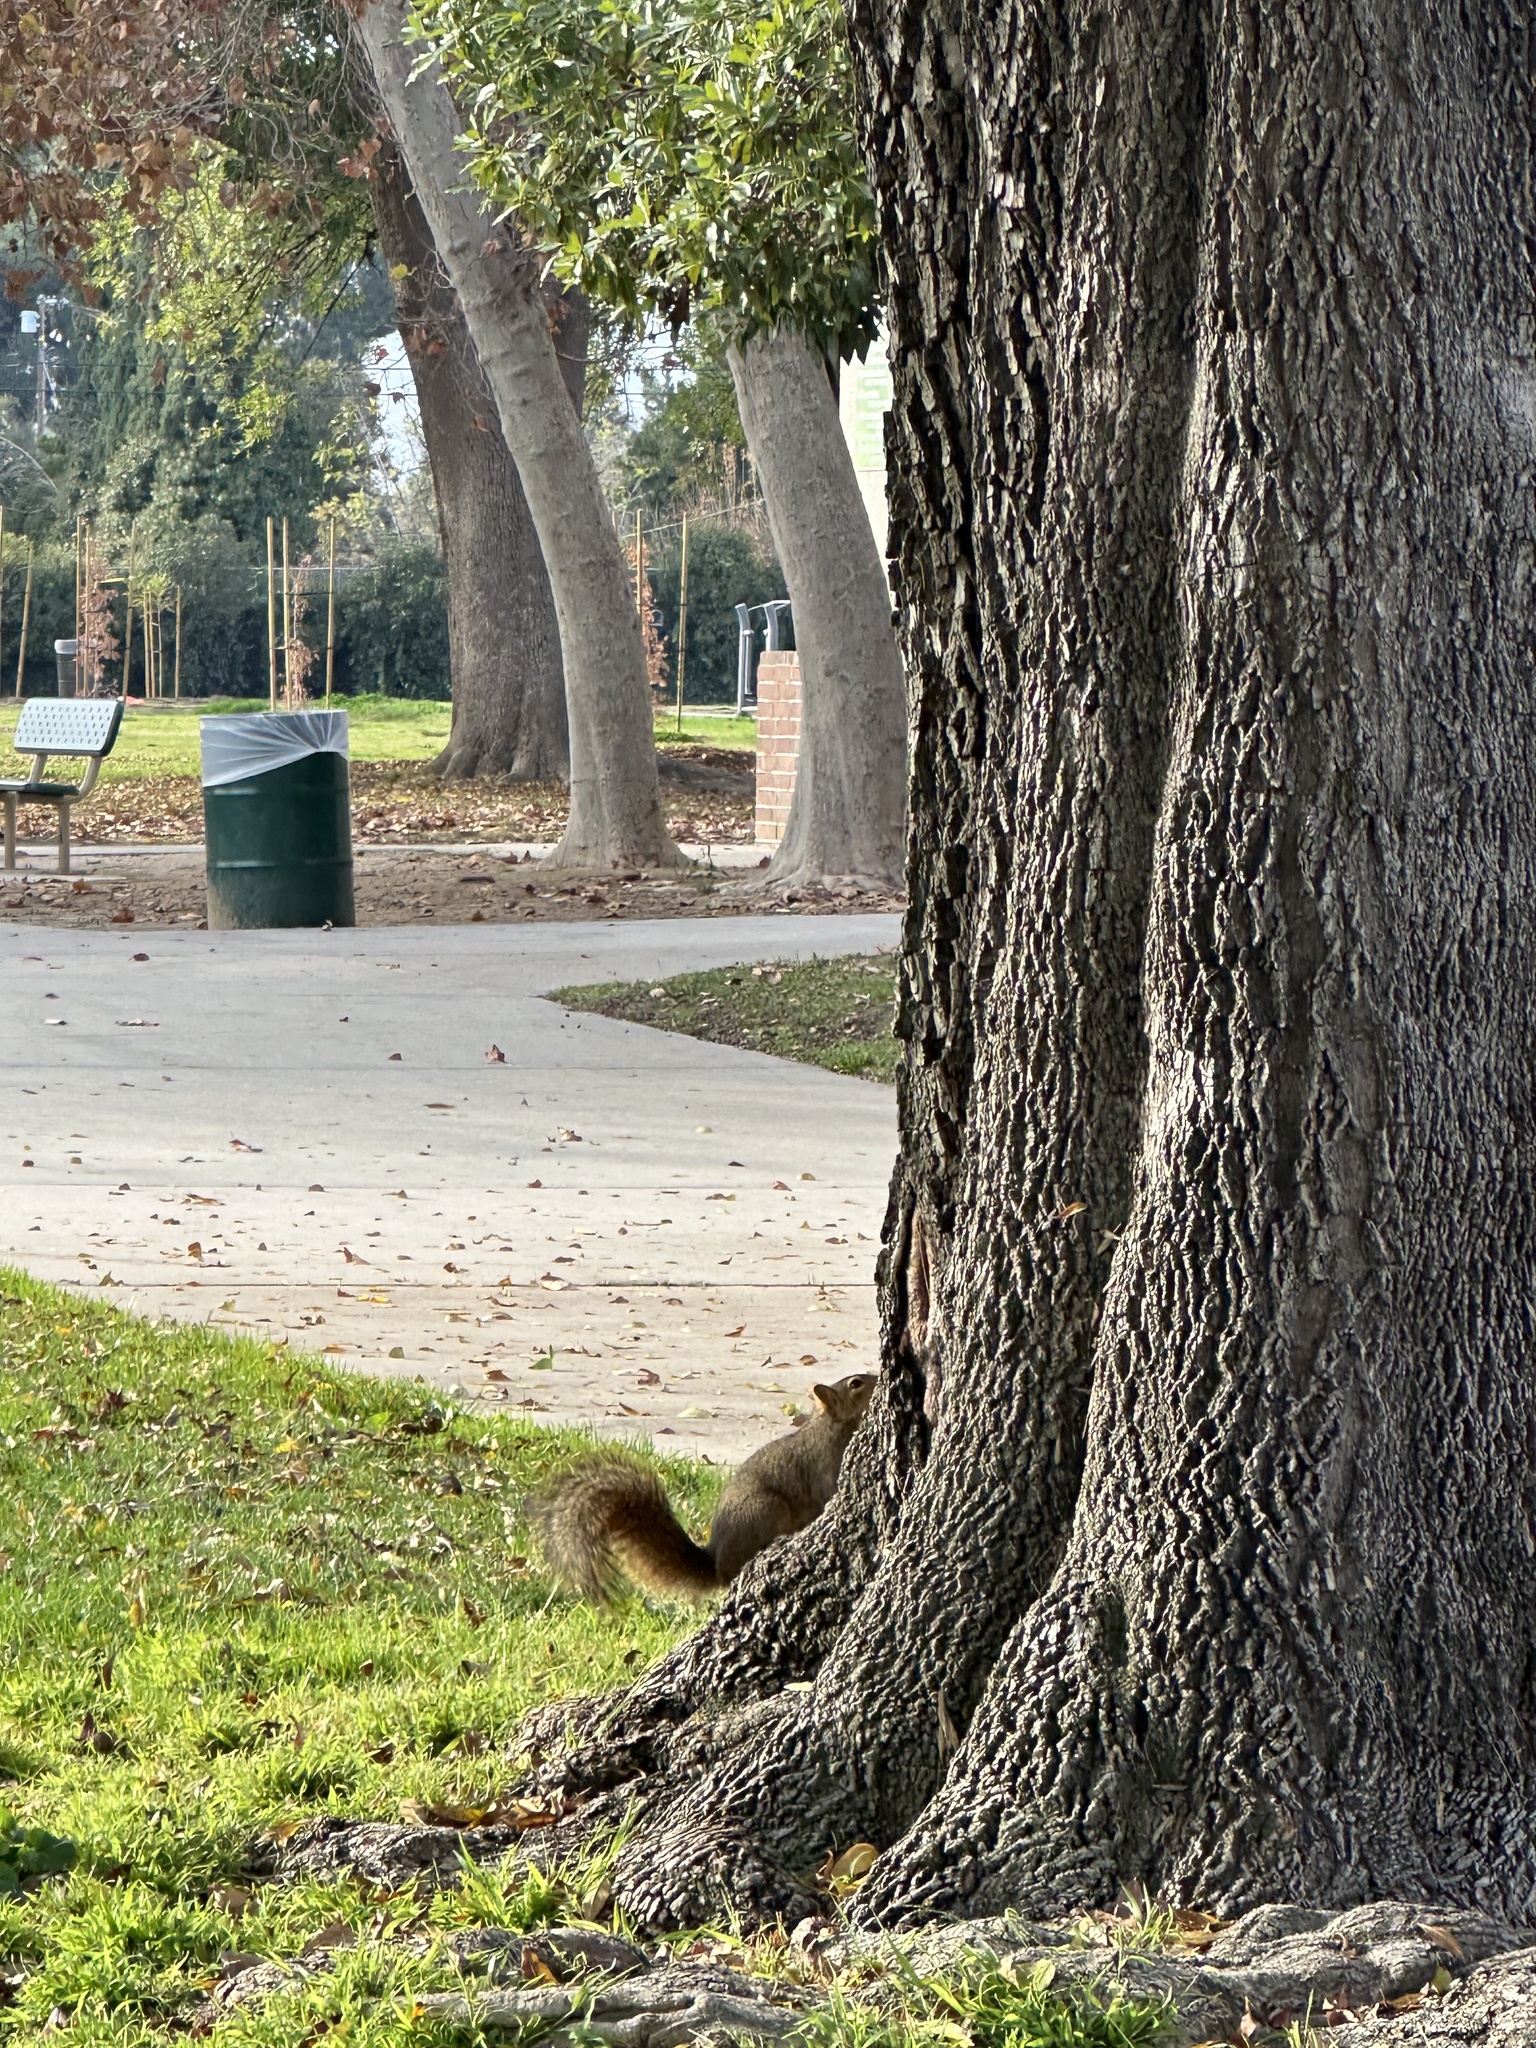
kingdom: Animalia
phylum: Chordata
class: Mammalia
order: Rodentia
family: Sciuridae
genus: Sciurus
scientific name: Sciurus niger
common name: Fox squirrel
